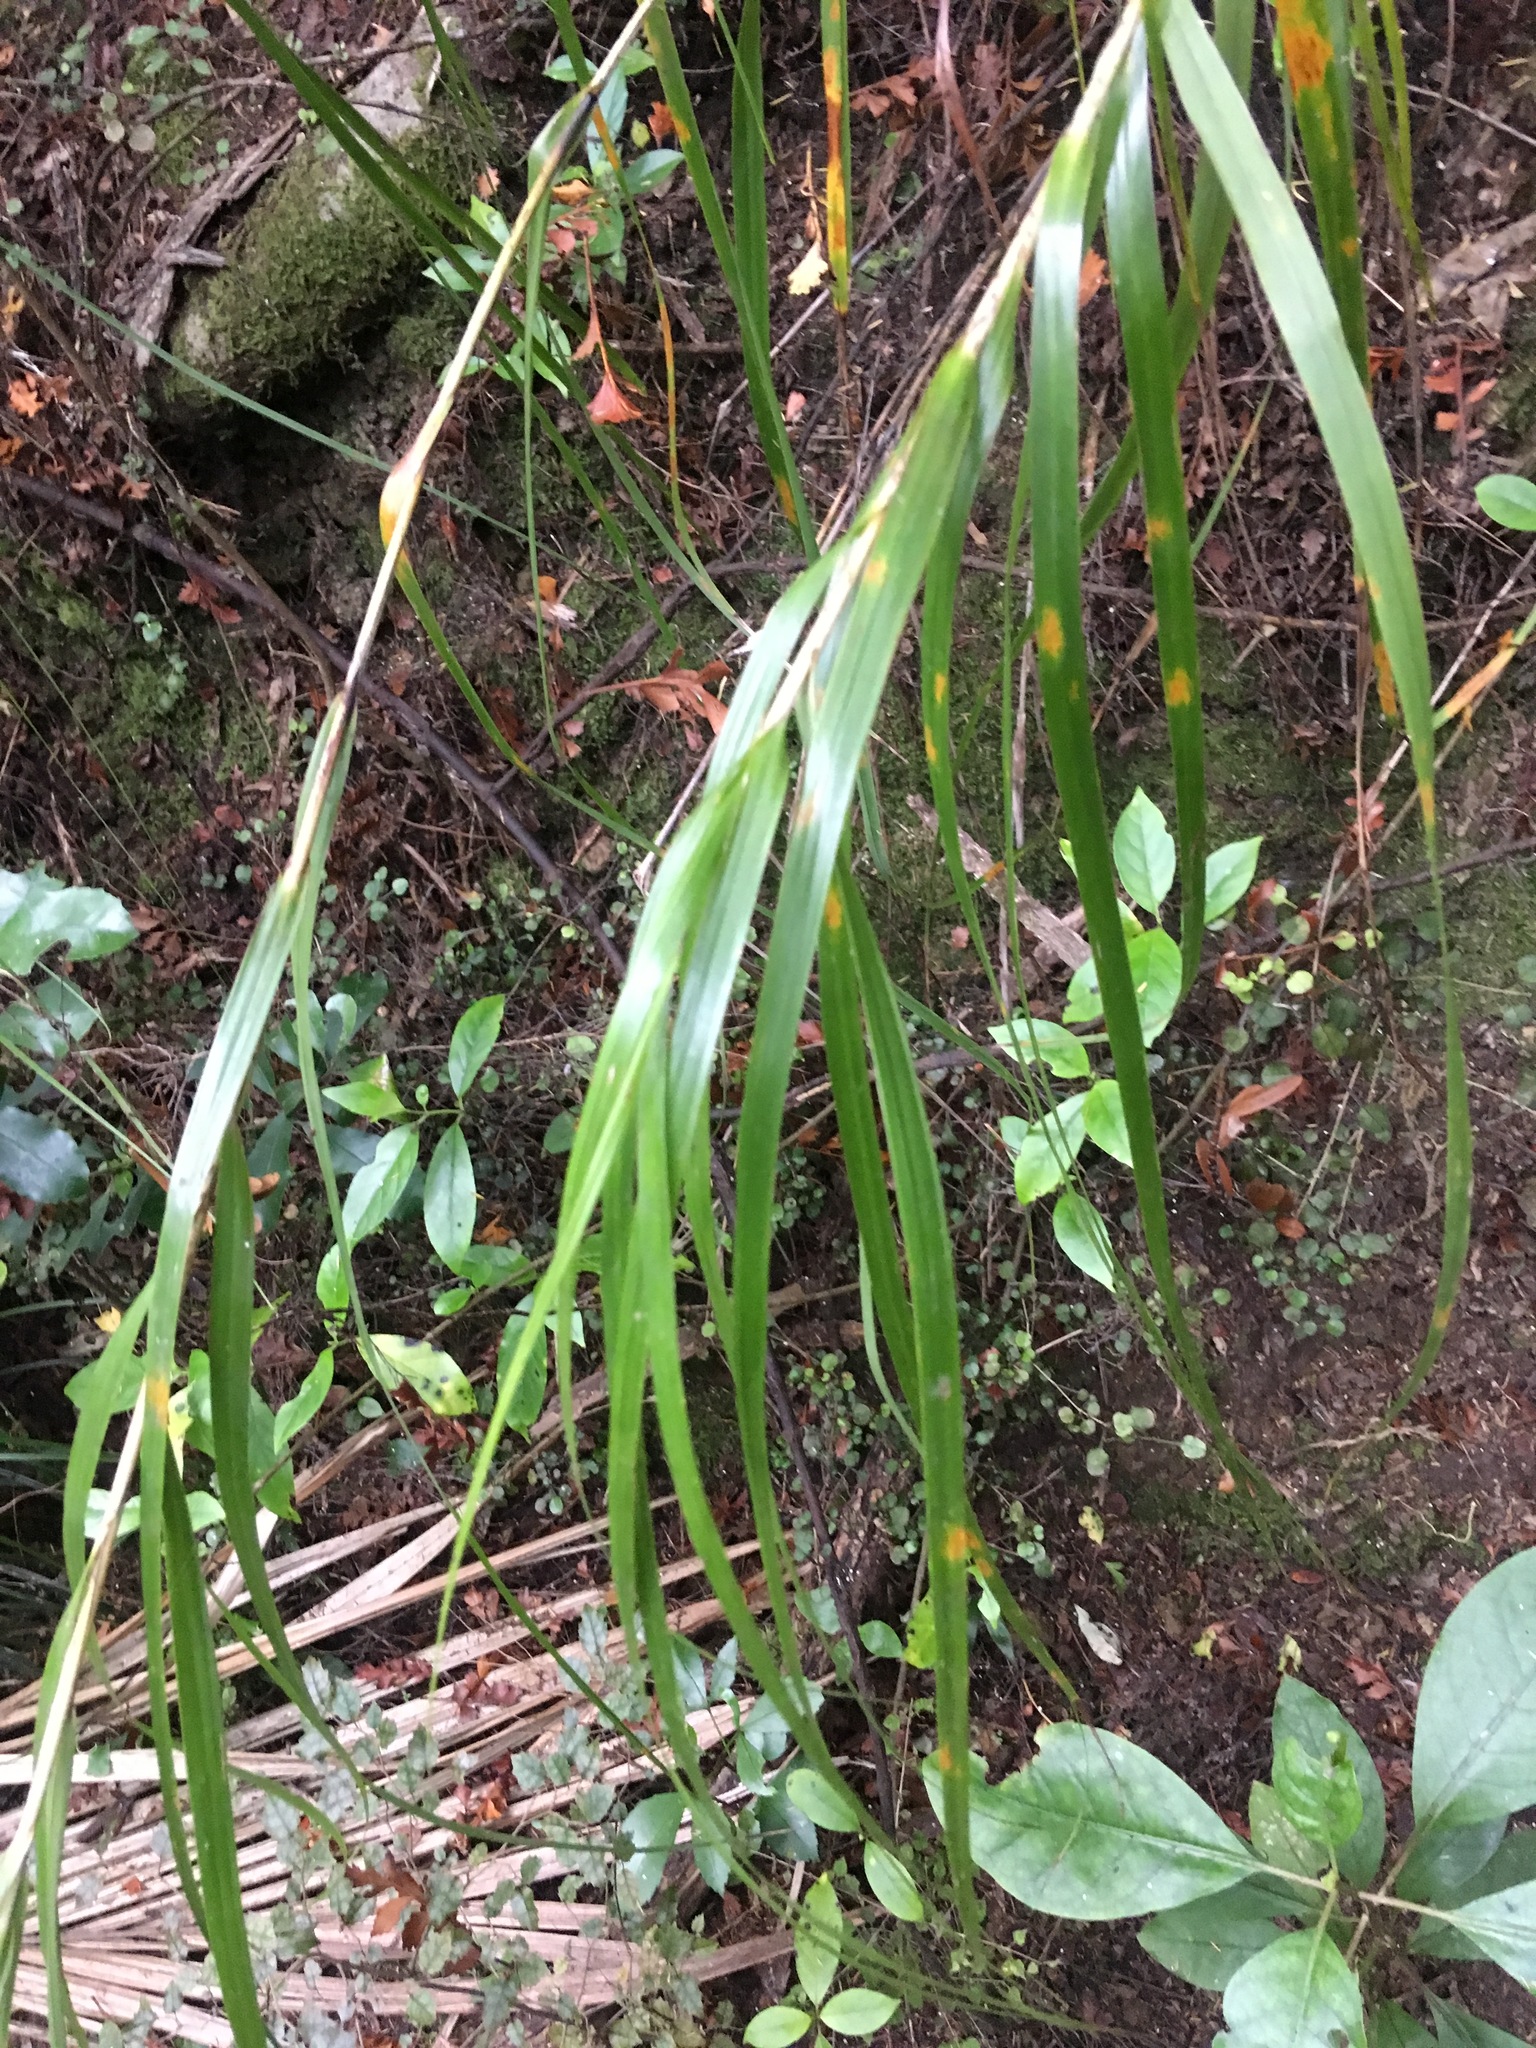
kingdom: Plantae
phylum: Tracheophyta
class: Liliopsida
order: Poales
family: Cyperaceae
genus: Gahnia
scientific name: Gahnia lacera
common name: Sawsedge
